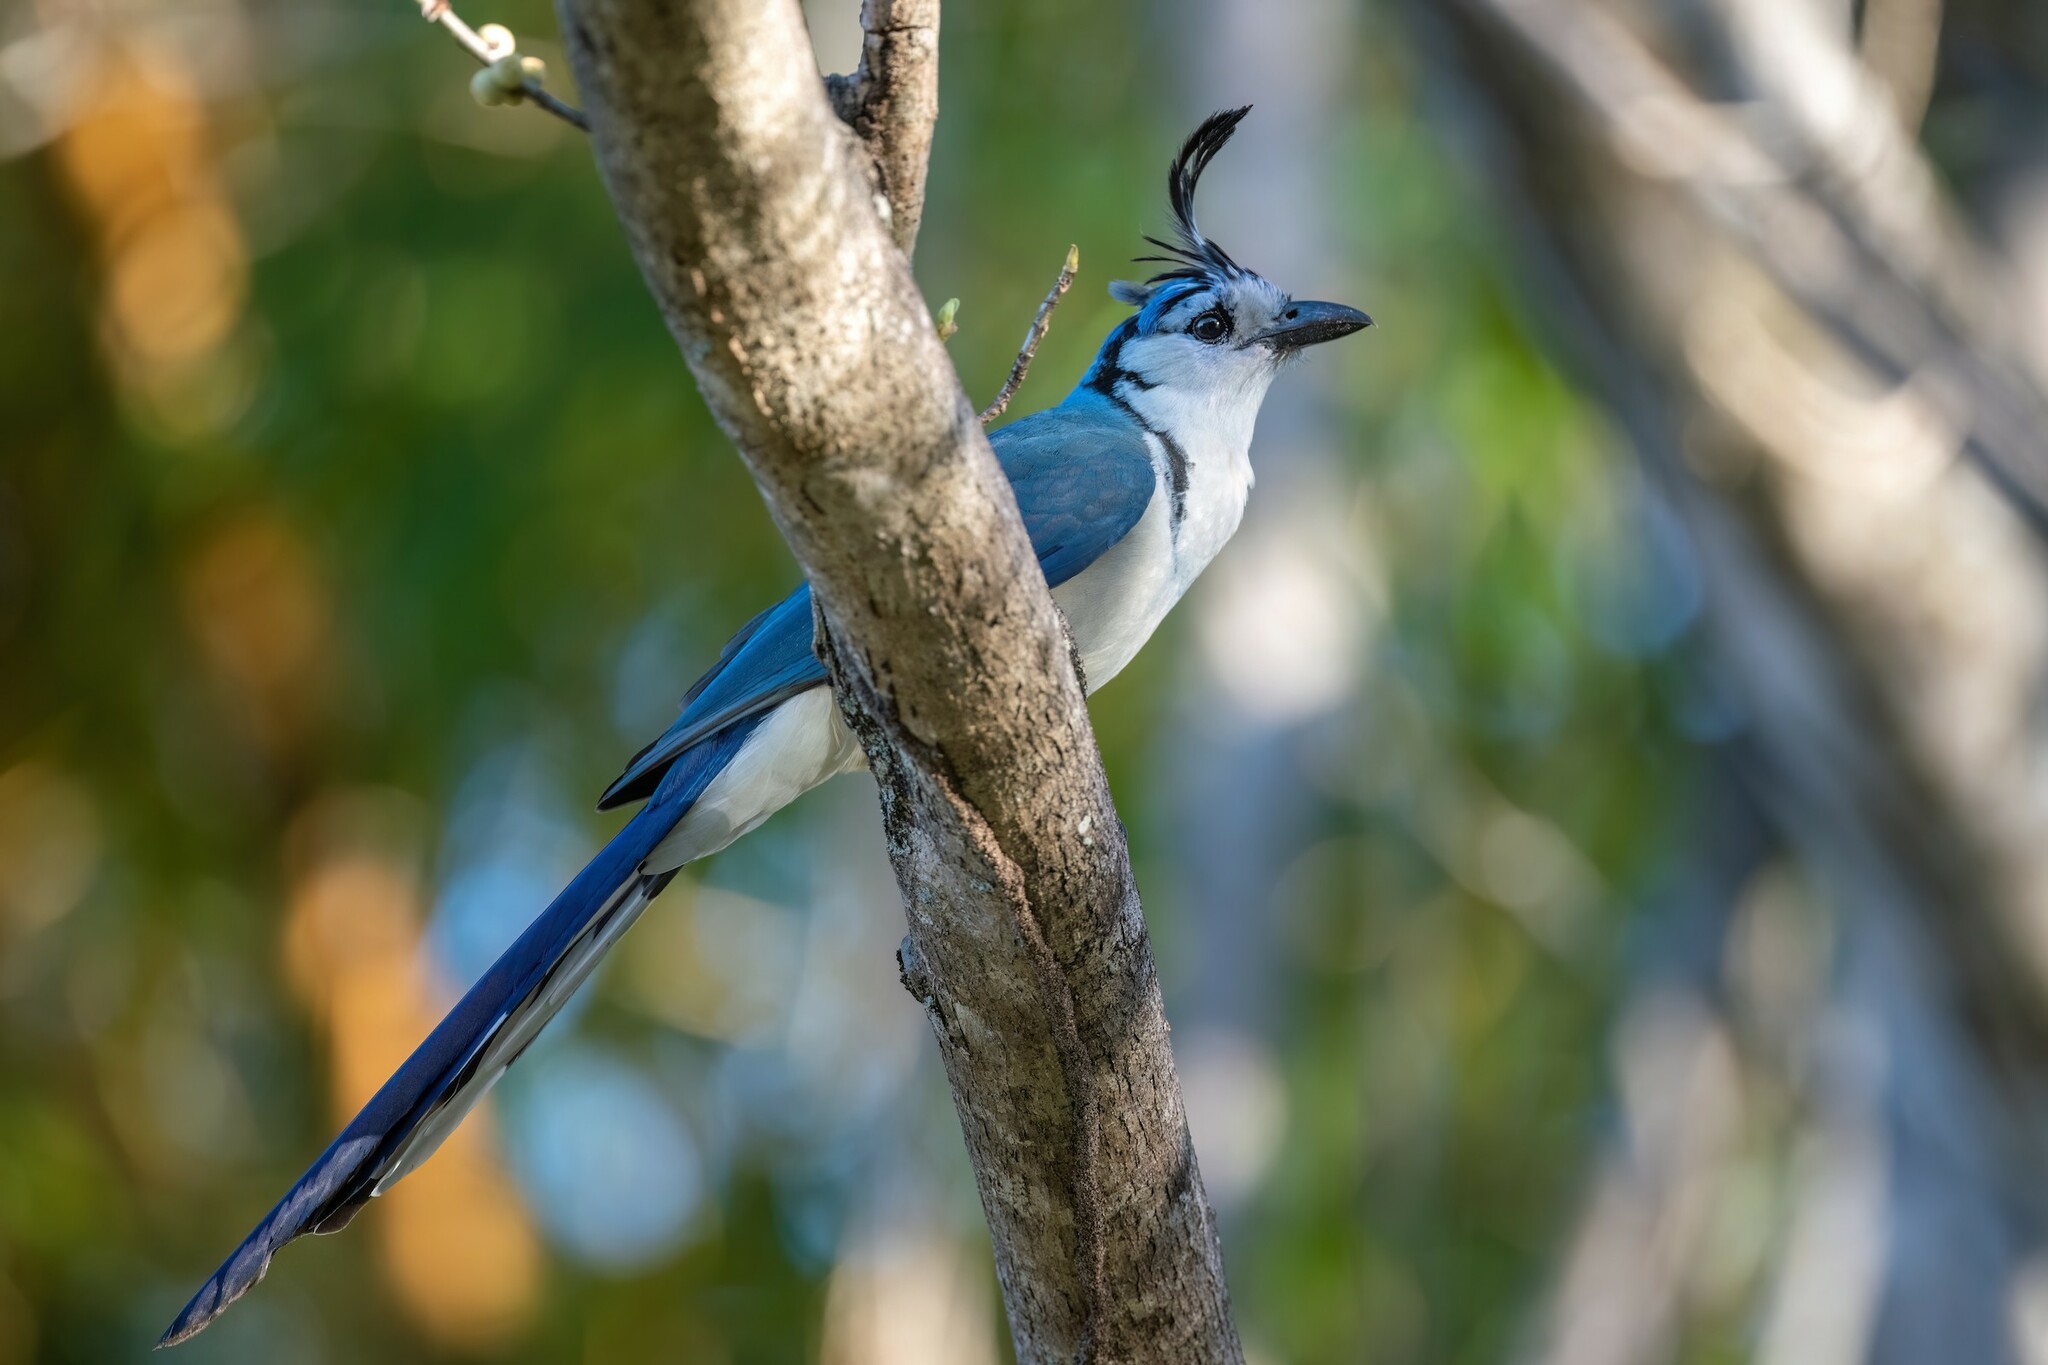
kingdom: Animalia
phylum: Chordata
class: Aves
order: Passeriformes
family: Corvidae
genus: Calocitta
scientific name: Calocitta formosa
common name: White-throated magpie-jay
